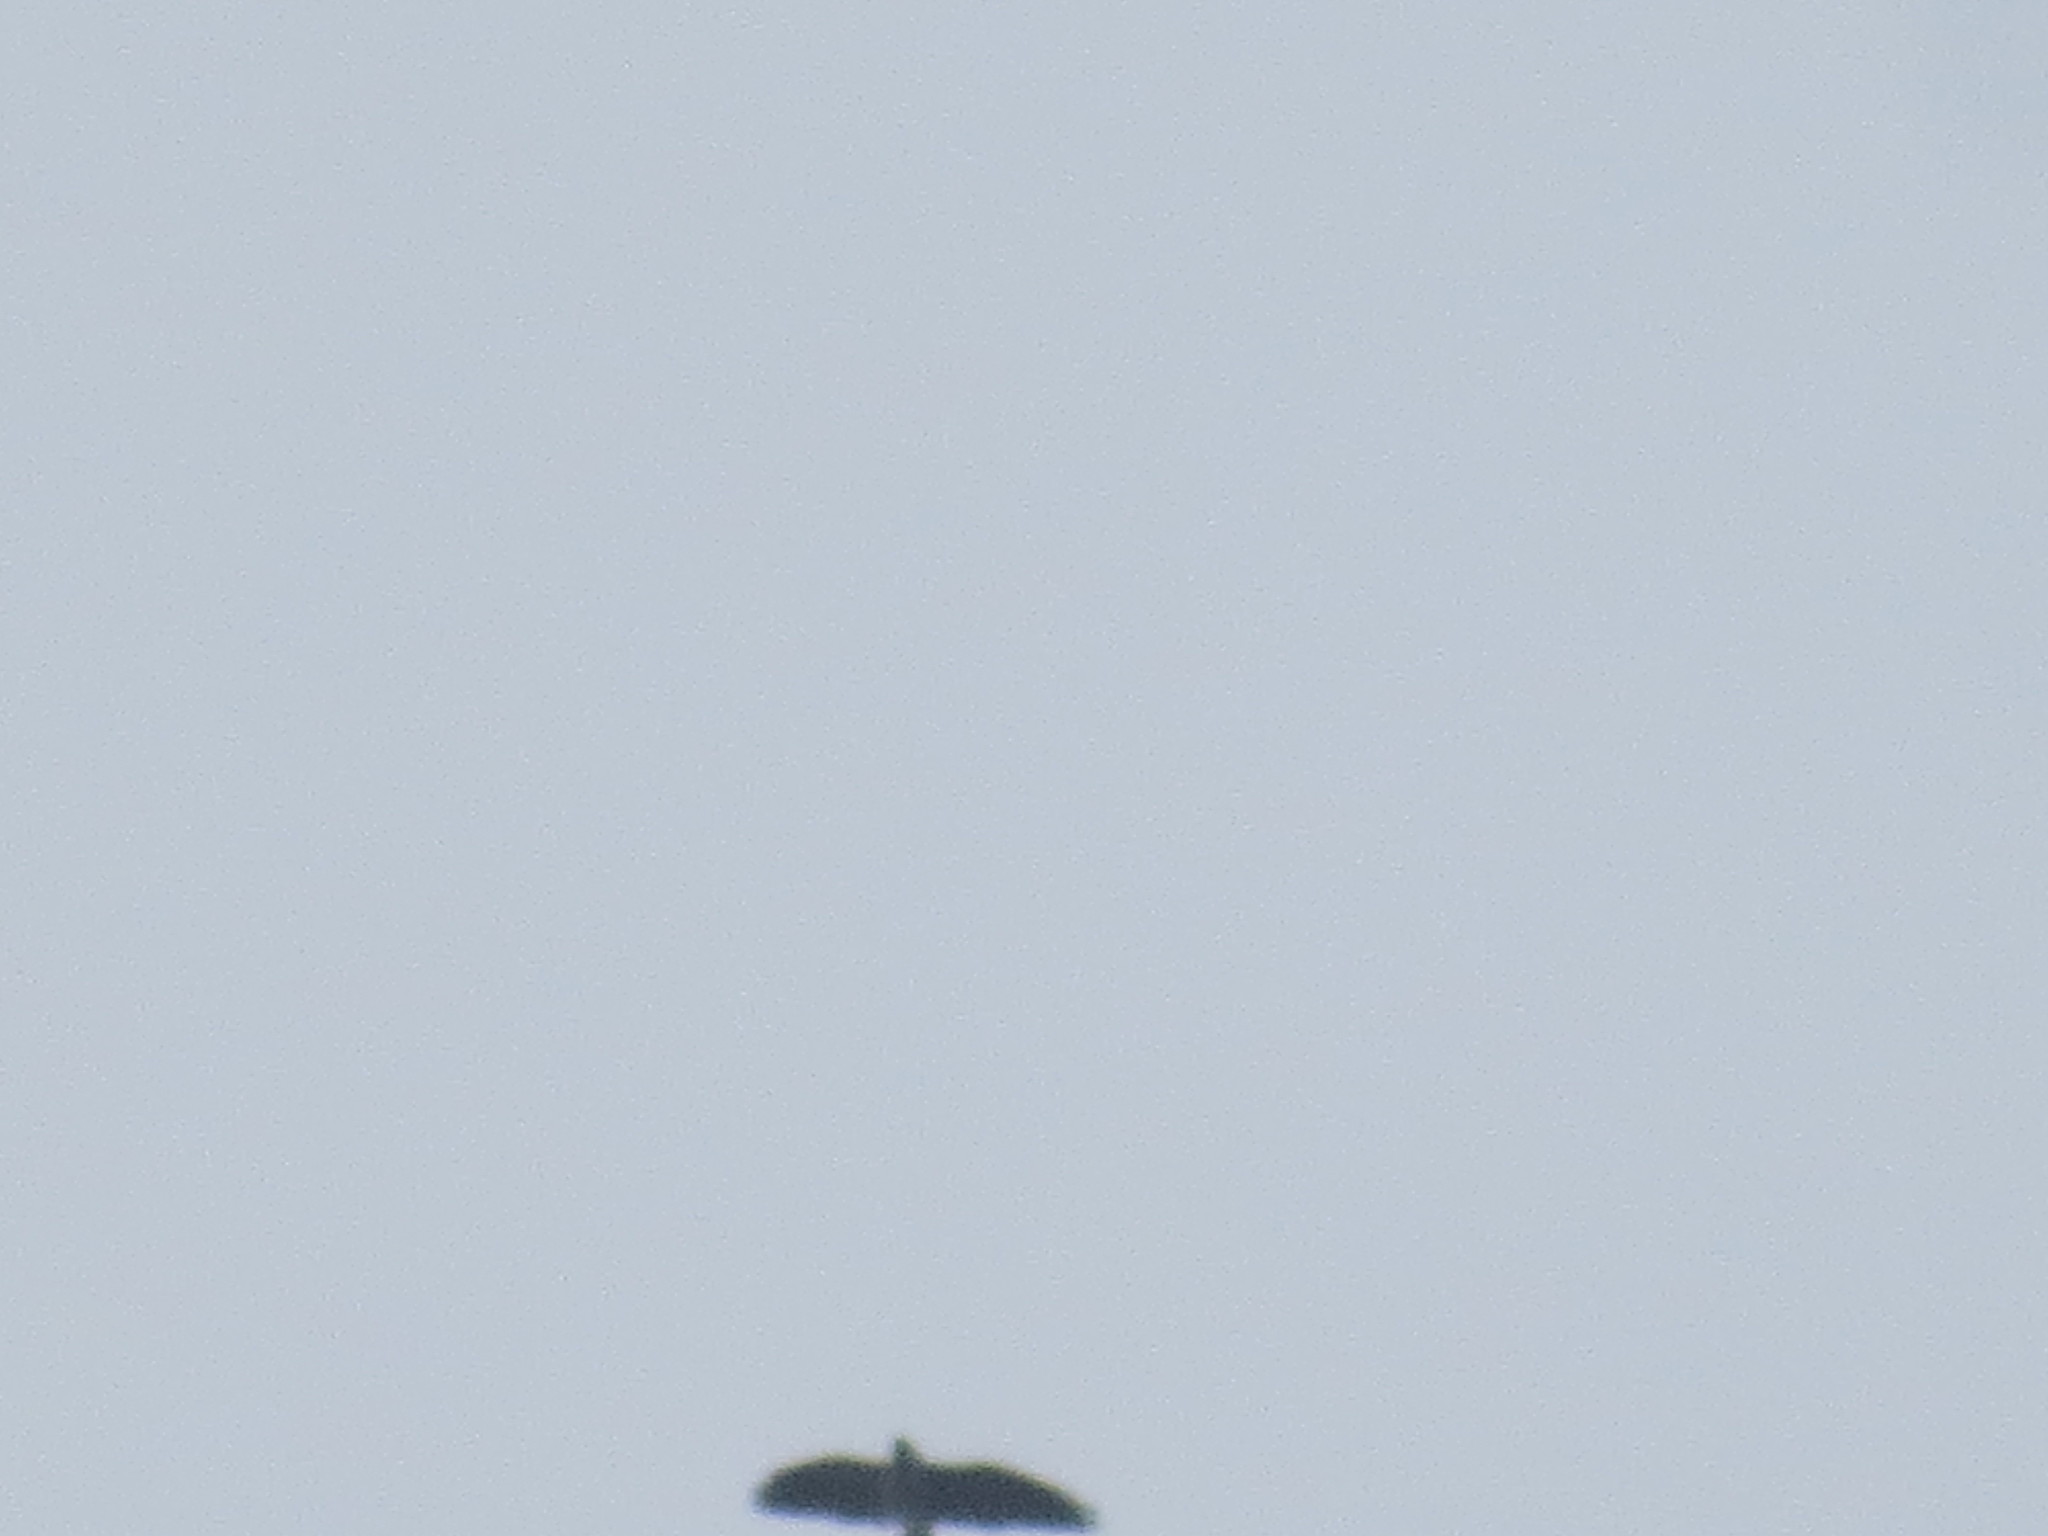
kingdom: Animalia
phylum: Chordata
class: Aves
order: Accipitriformes
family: Accipitridae
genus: Ictinia
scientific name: Ictinia mississippiensis
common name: Mississippi kite
